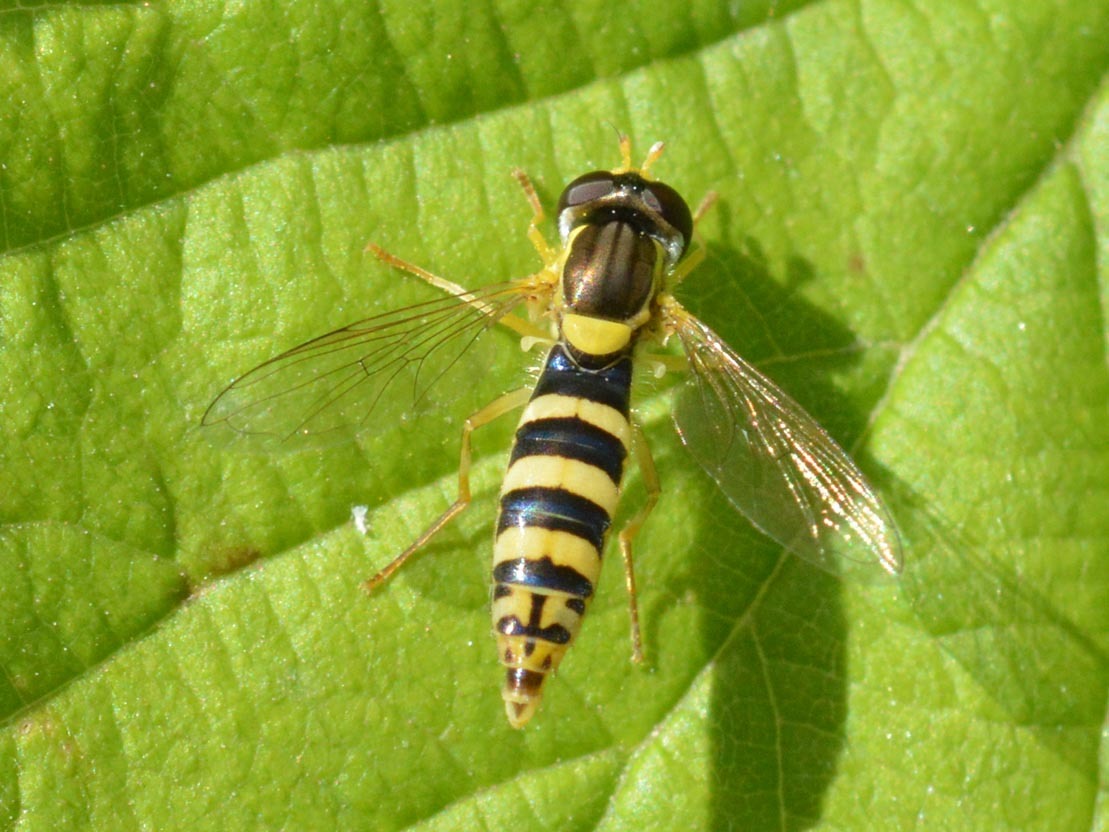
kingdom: Animalia
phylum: Arthropoda
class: Insecta
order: Diptera
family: Syrphidae
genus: Sphaerophoria
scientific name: Sphaerophoria
